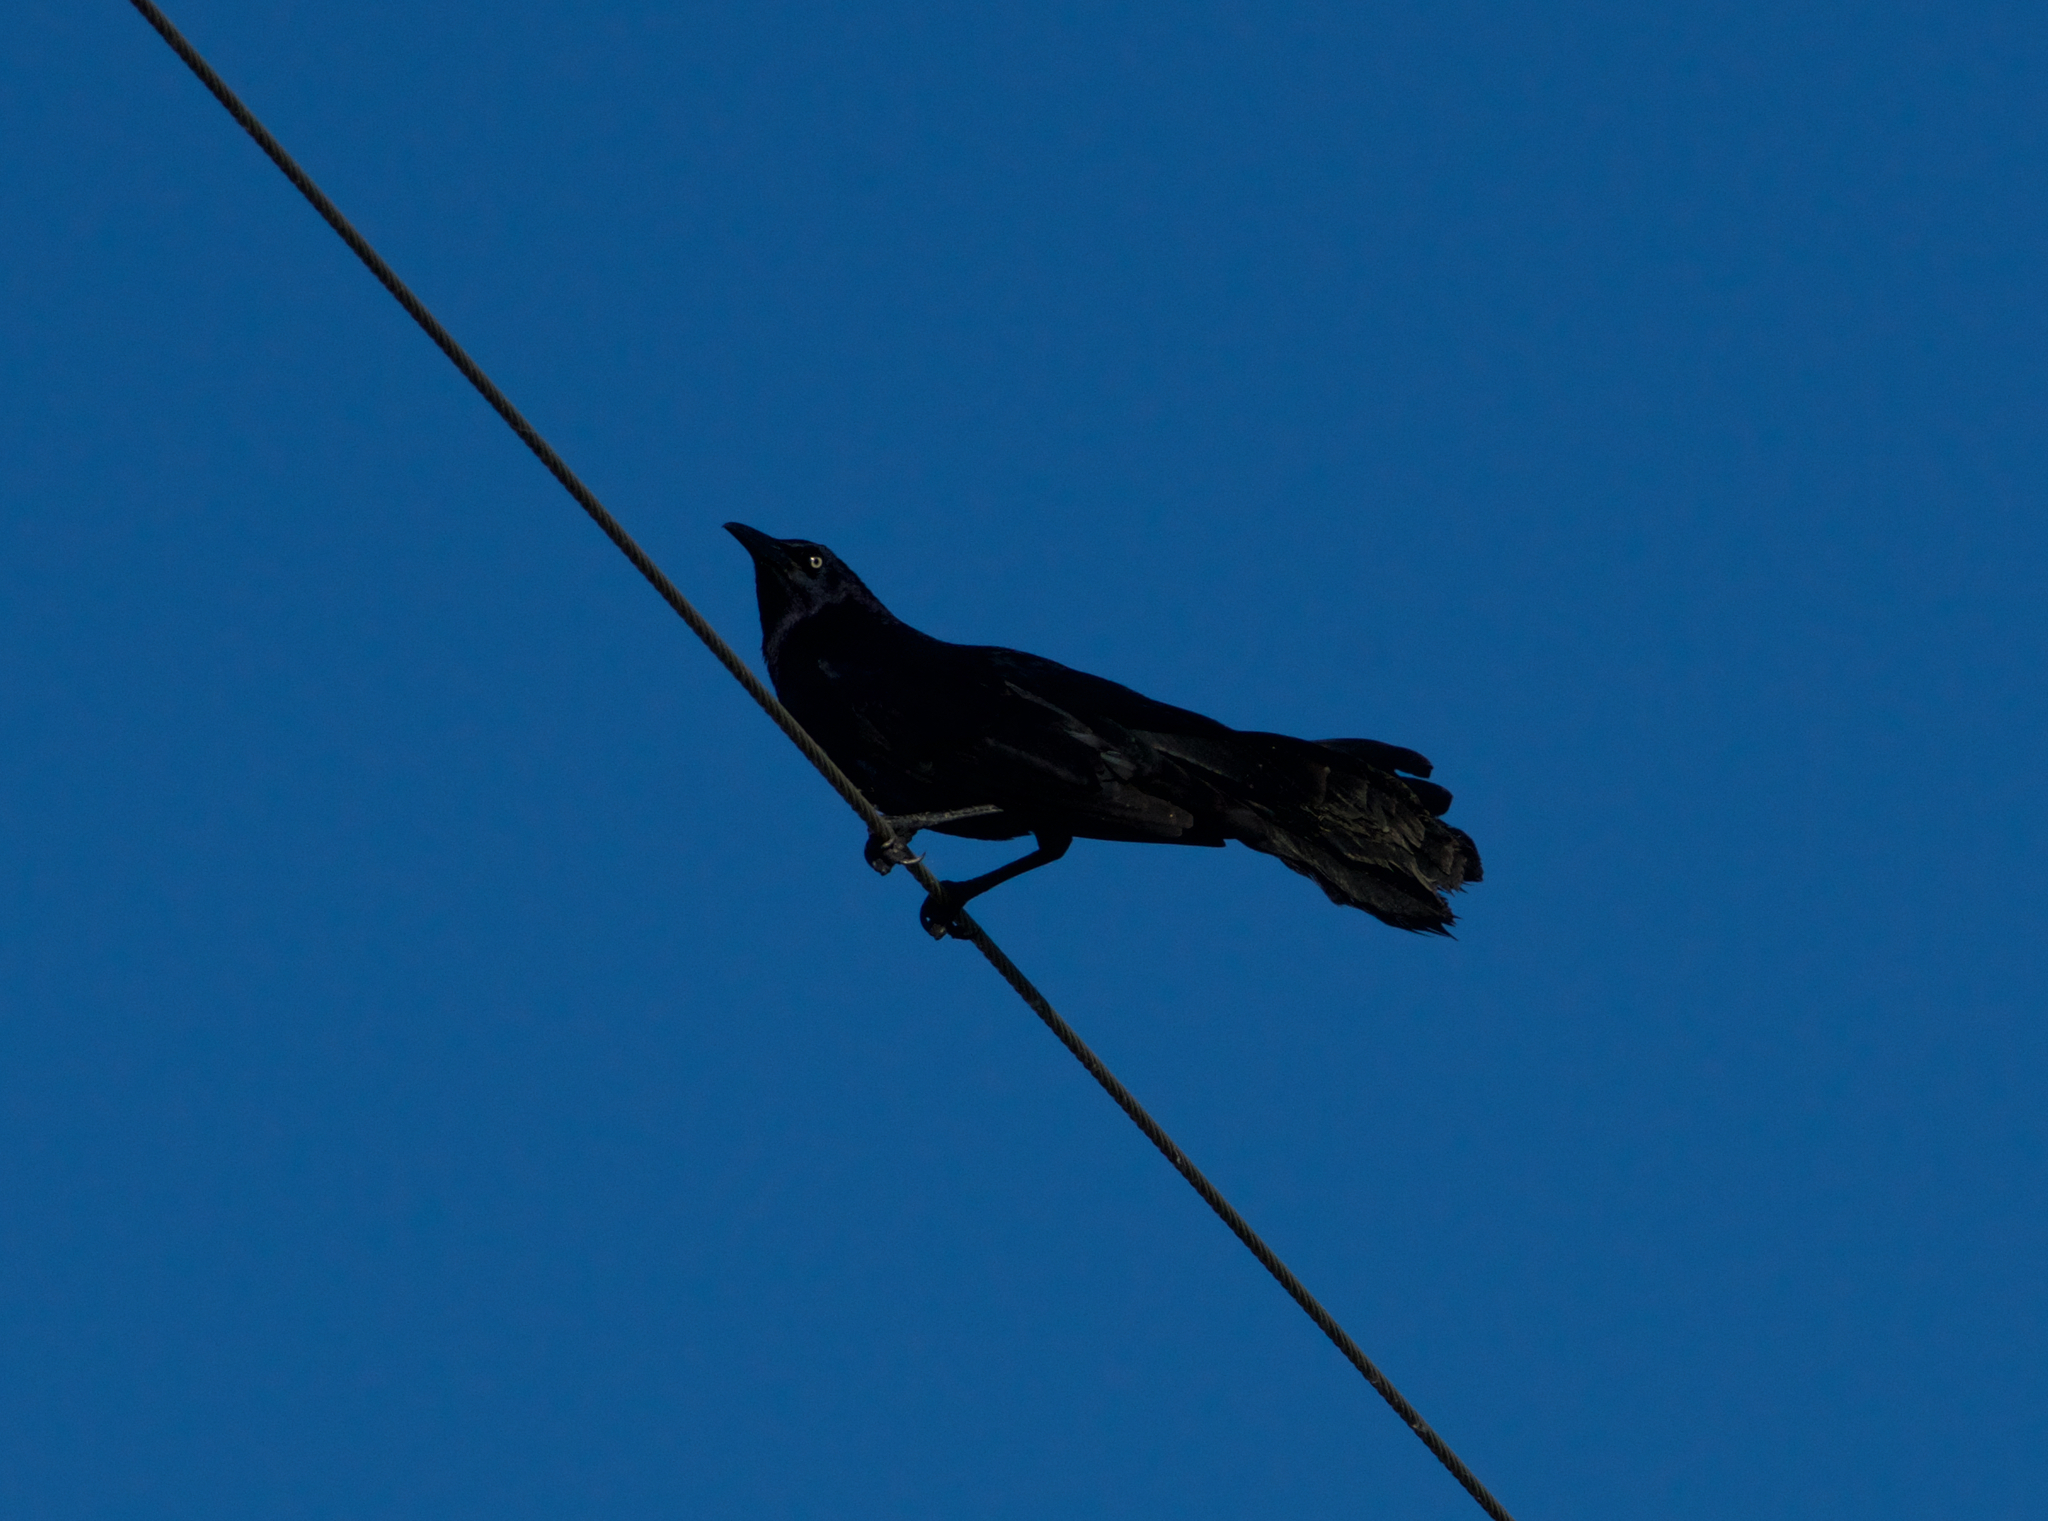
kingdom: Animalia
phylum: Chordata
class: Aves
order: Passeriformes
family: Icteridae
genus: Quiscalus
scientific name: Quiscalus mexicanus
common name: Great-tailed grackle
